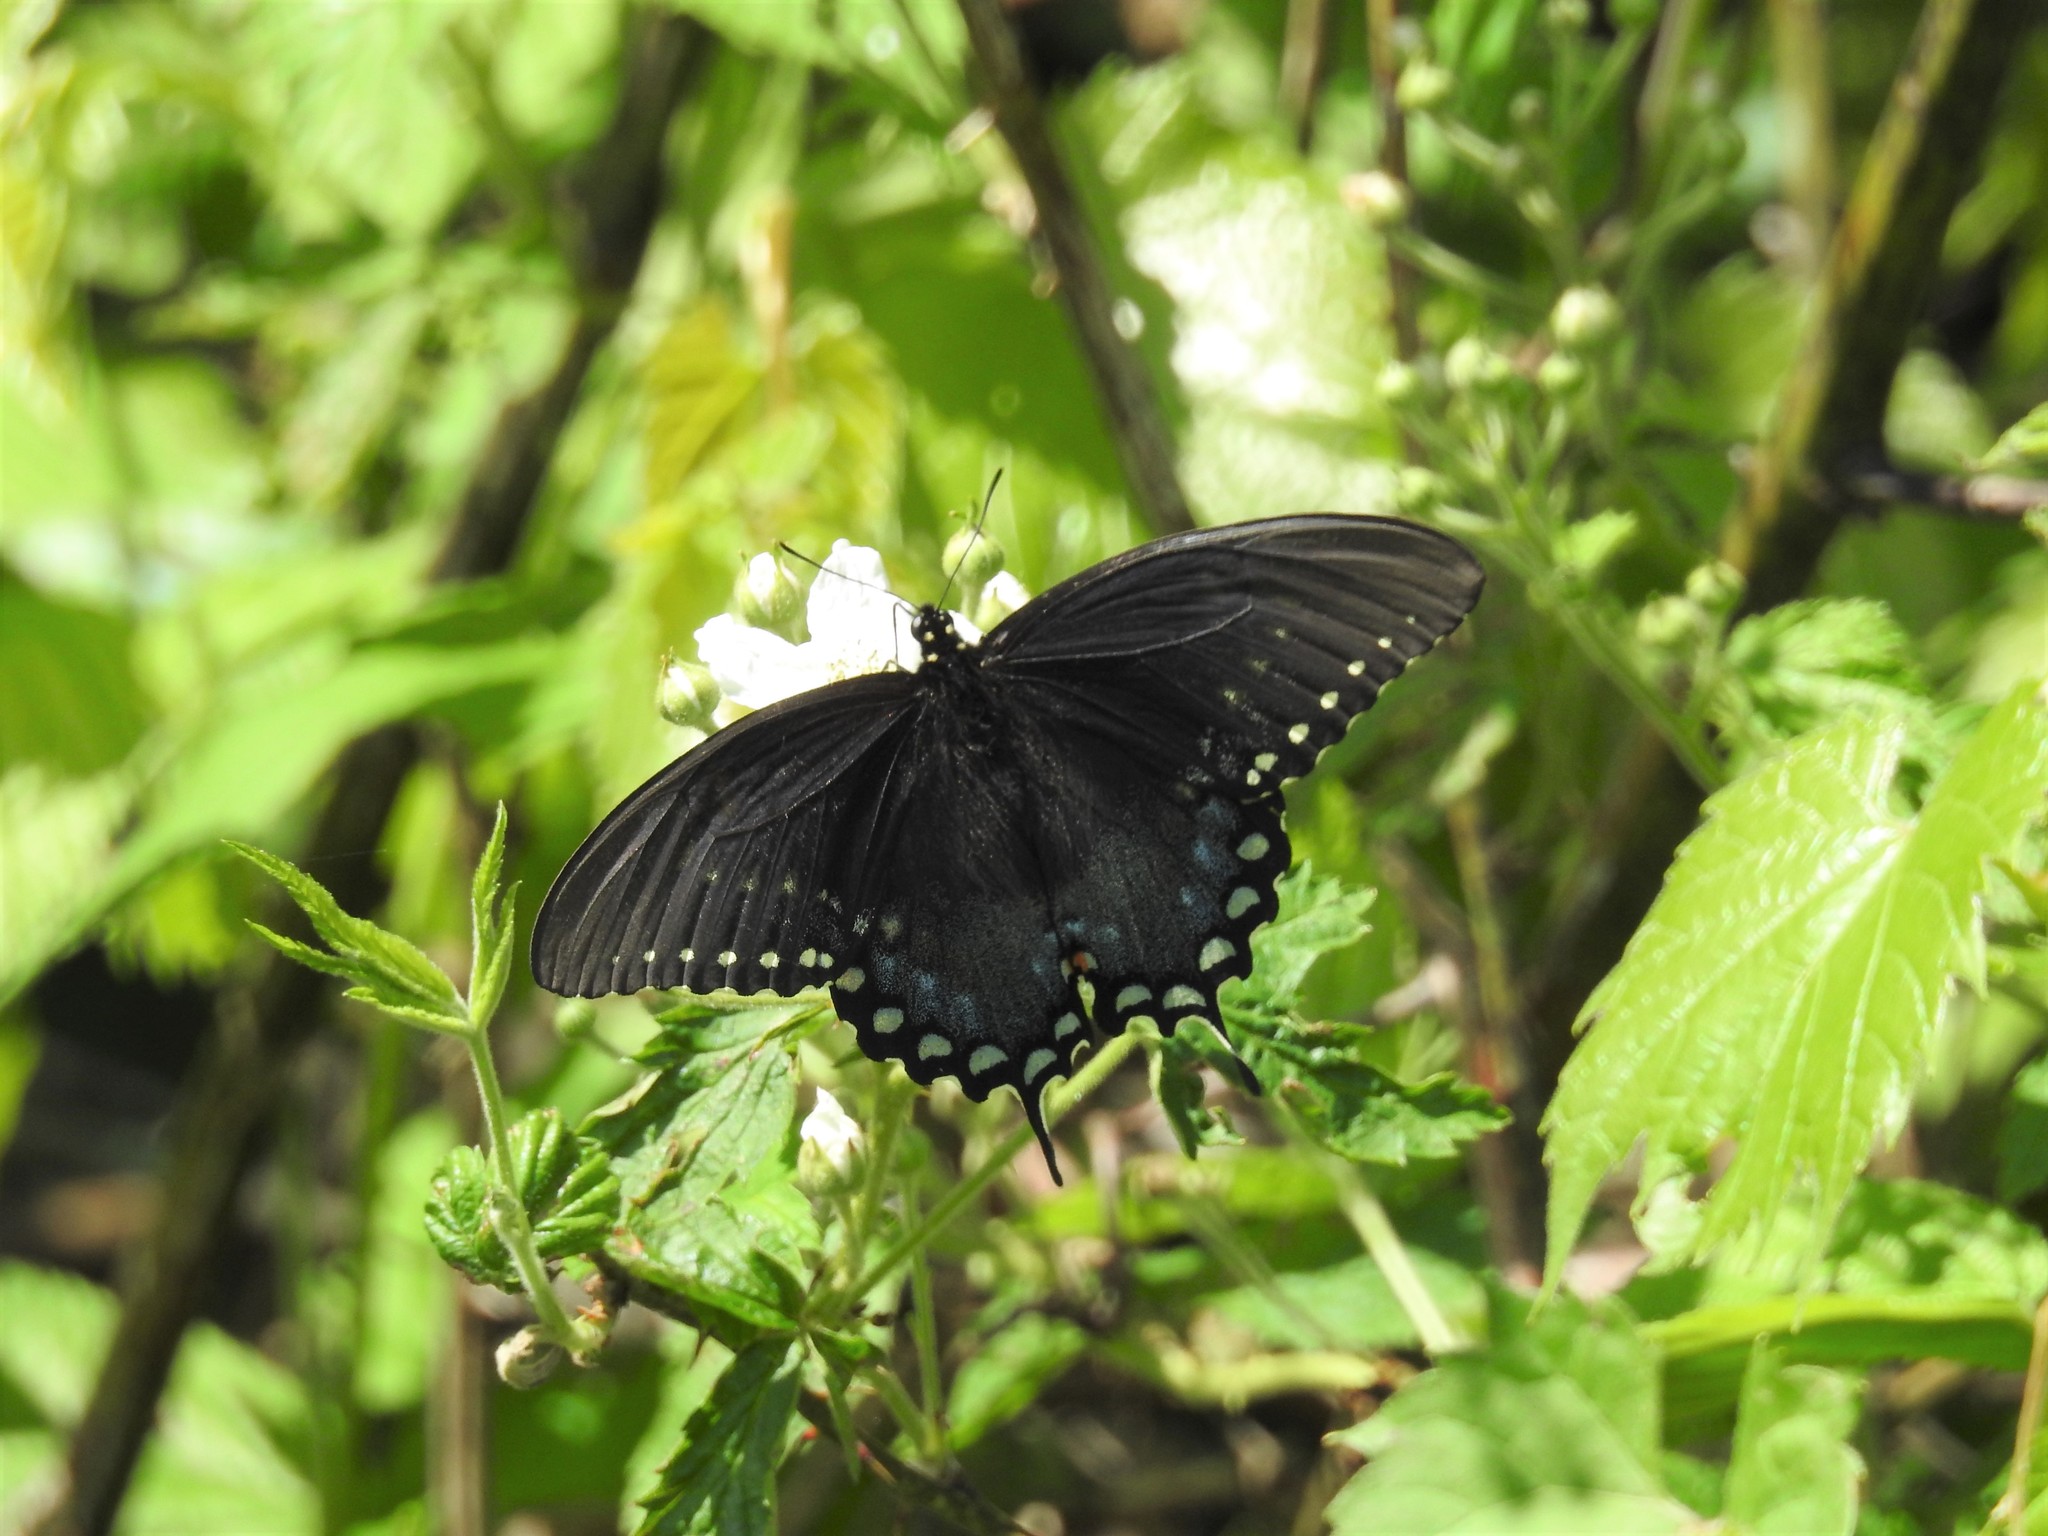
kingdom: Animalia
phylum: Arthropoda
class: Insecta
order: Lepidoptera
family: Papilionidae
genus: Papilio
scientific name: Papilio troilus
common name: Spicebush swallowtail
